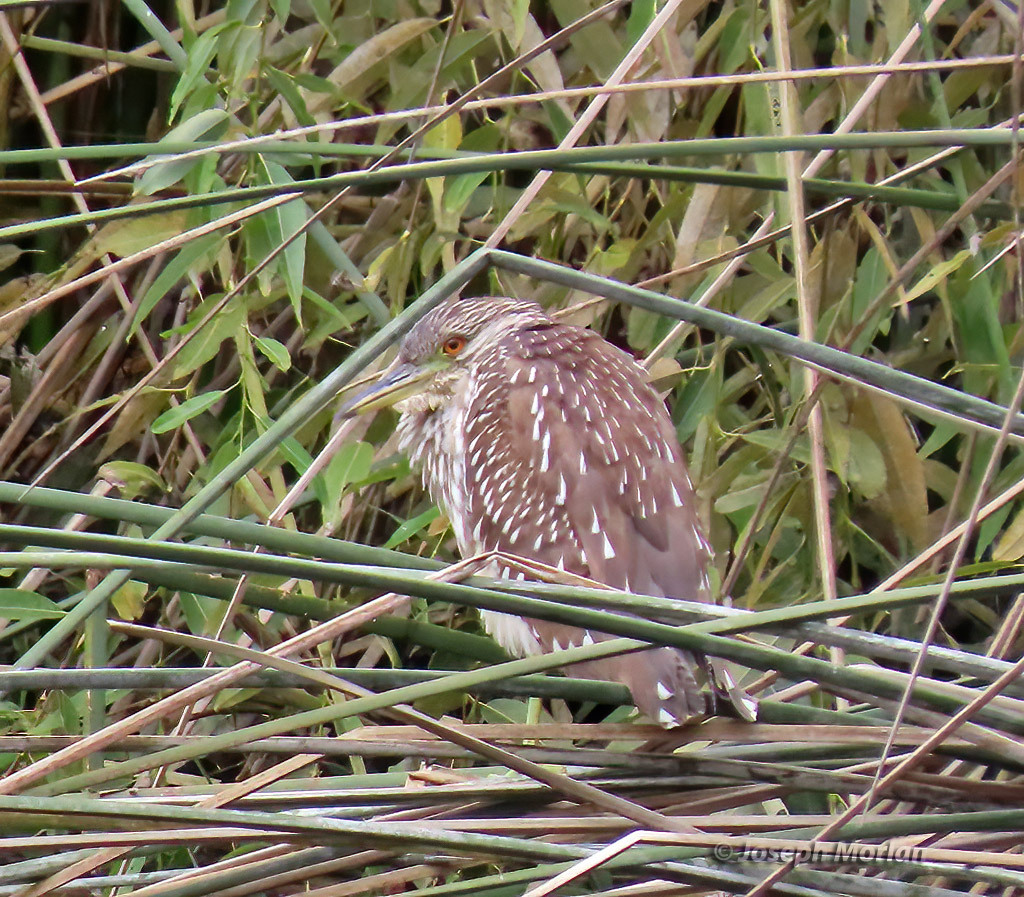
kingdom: Animalia
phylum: Chordata
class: Aves
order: Pelecaniformes
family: Ardeidae
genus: Nycticorax
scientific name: Nycticorax nycticorax
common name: Black-crowned night heron
